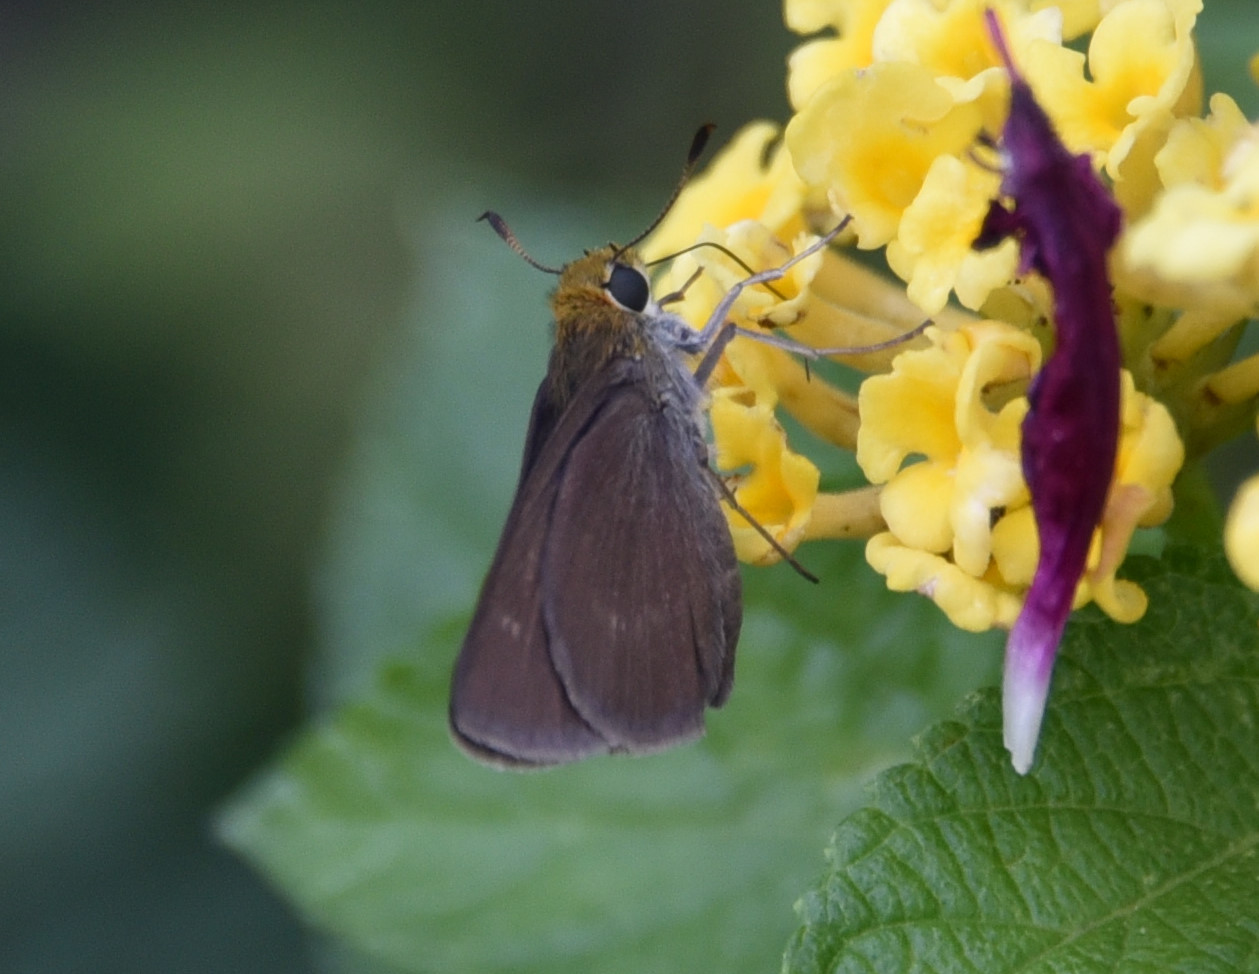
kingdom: Animalia
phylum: Arthropoda
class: Insecta
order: Lepidoptera
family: Hesperiidae
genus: Euphyes
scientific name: Euphyes vestris
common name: Dun skipper
